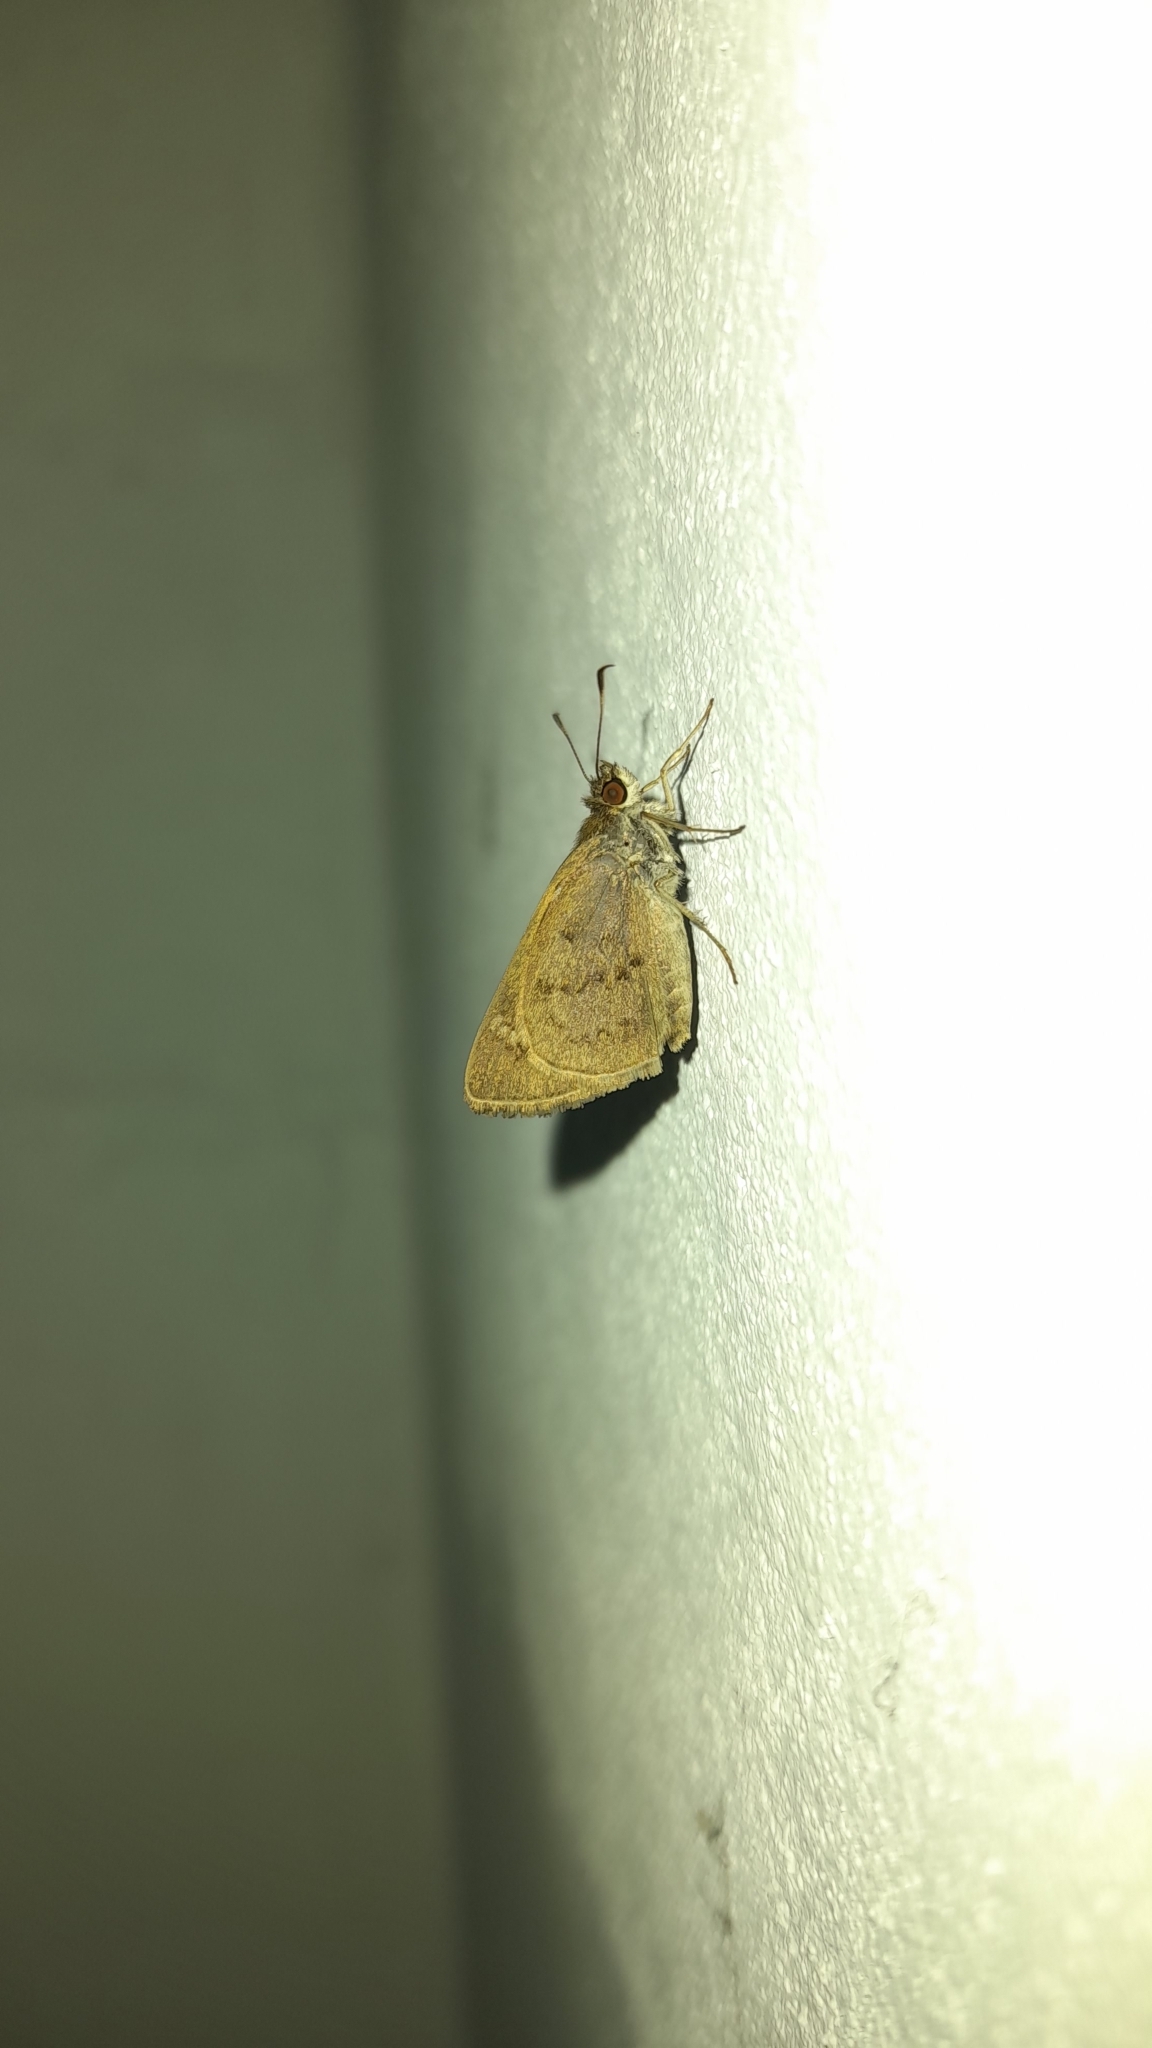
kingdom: Animalia
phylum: Arthropoda
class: Insecta
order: Lepidoptera
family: Hesperiidae
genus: Cymaenes
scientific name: Cymaenes gisca
